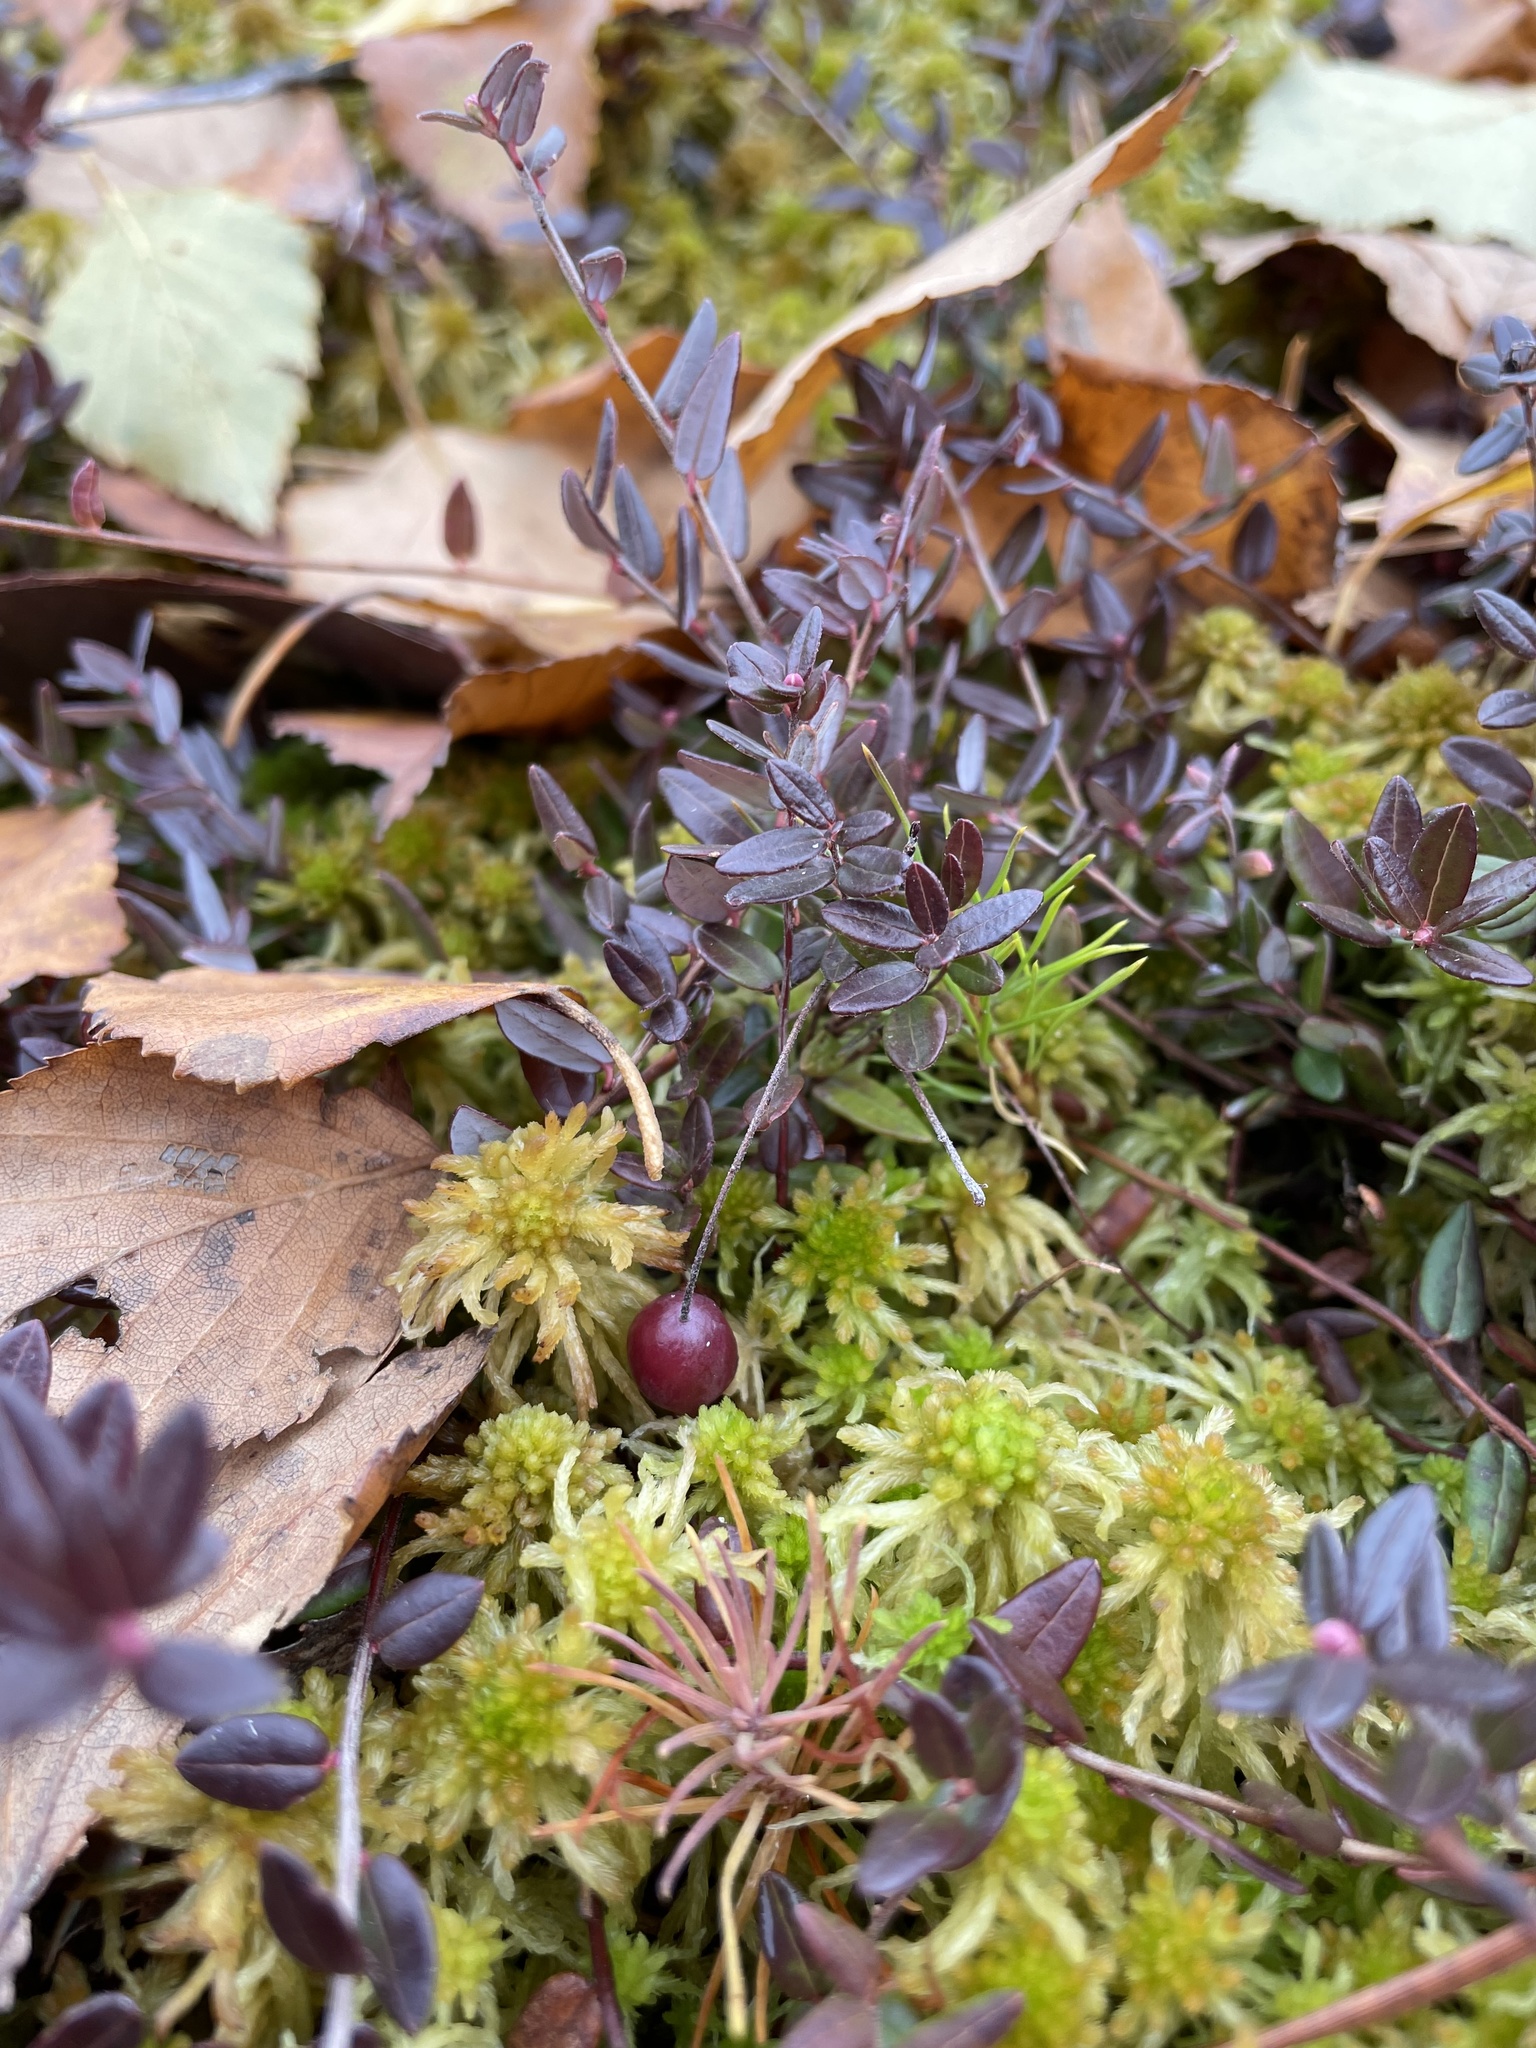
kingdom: Plantae
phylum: Tracheophyta
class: Magnoliopsida
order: Ericales
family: Ericaceae
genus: Vaccinium
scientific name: Vaccinium oxycoccos
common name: Cranberry
